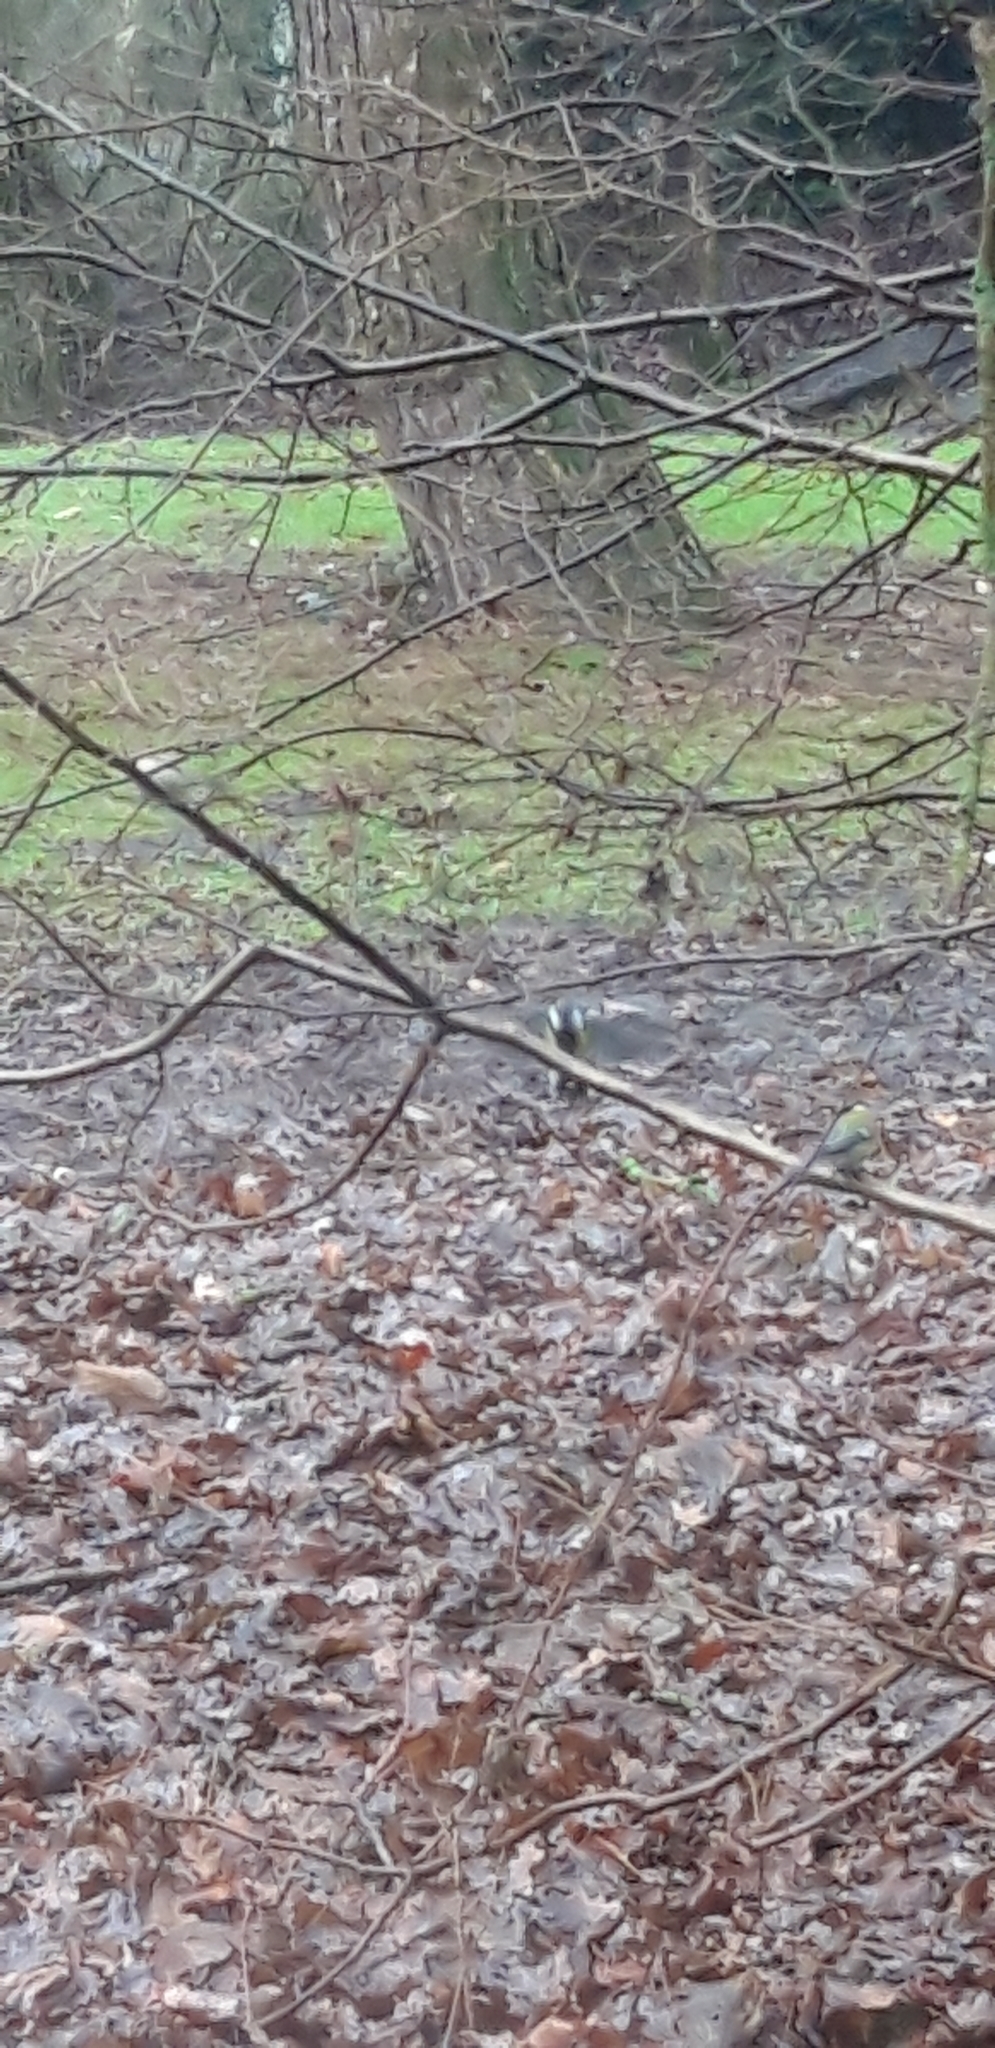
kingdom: Animalia
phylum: Chordata
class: Aves
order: Passeriformes
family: Paridae
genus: Parus
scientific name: Parus major
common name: Great tit
